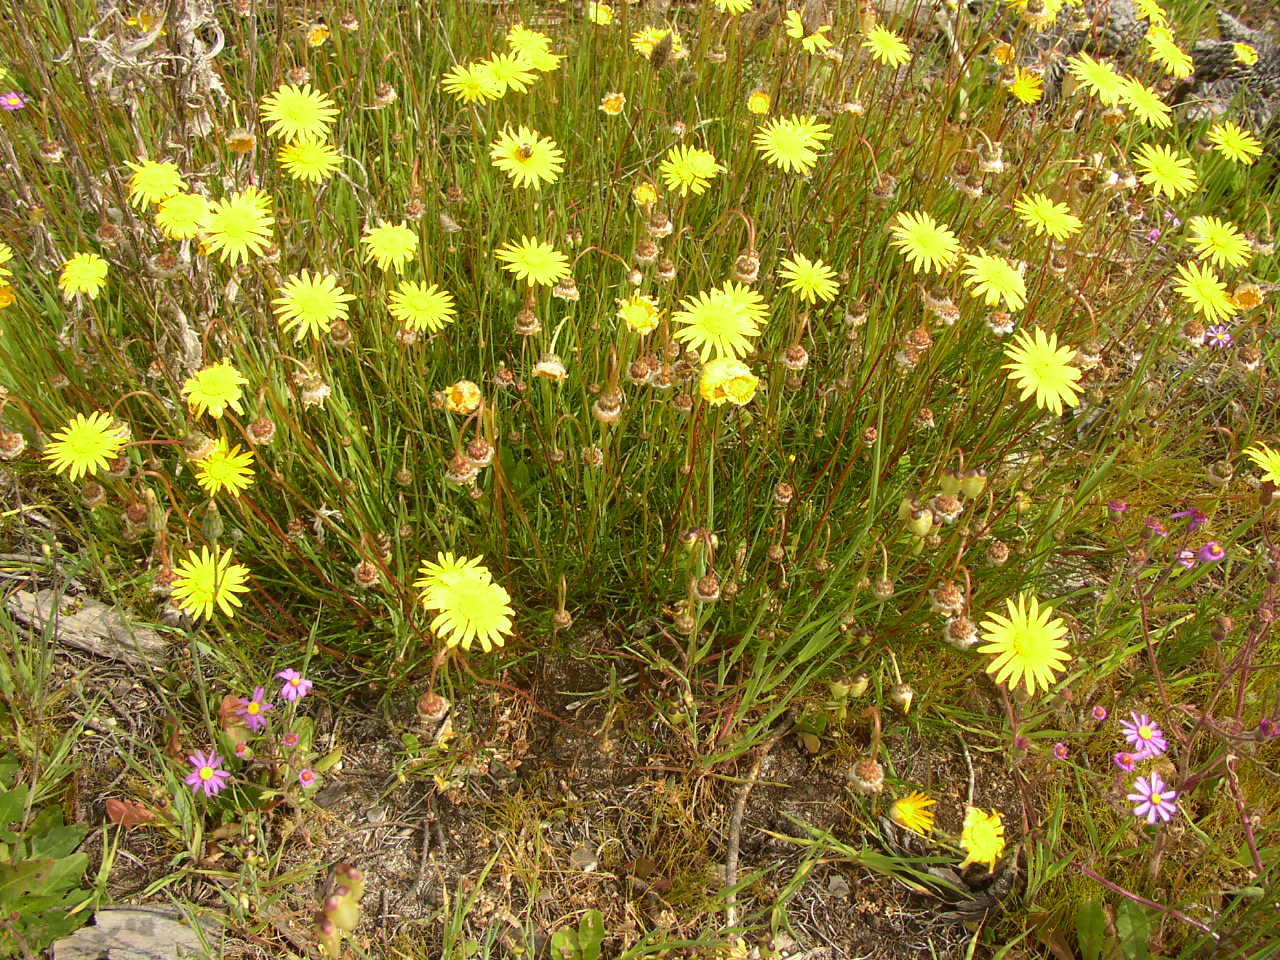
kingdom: Plantae
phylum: Tracheophyta
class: Magnoliopsida
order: Asterales
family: Asteraceae
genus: Ursinia
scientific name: Ursinia tenuifolia
